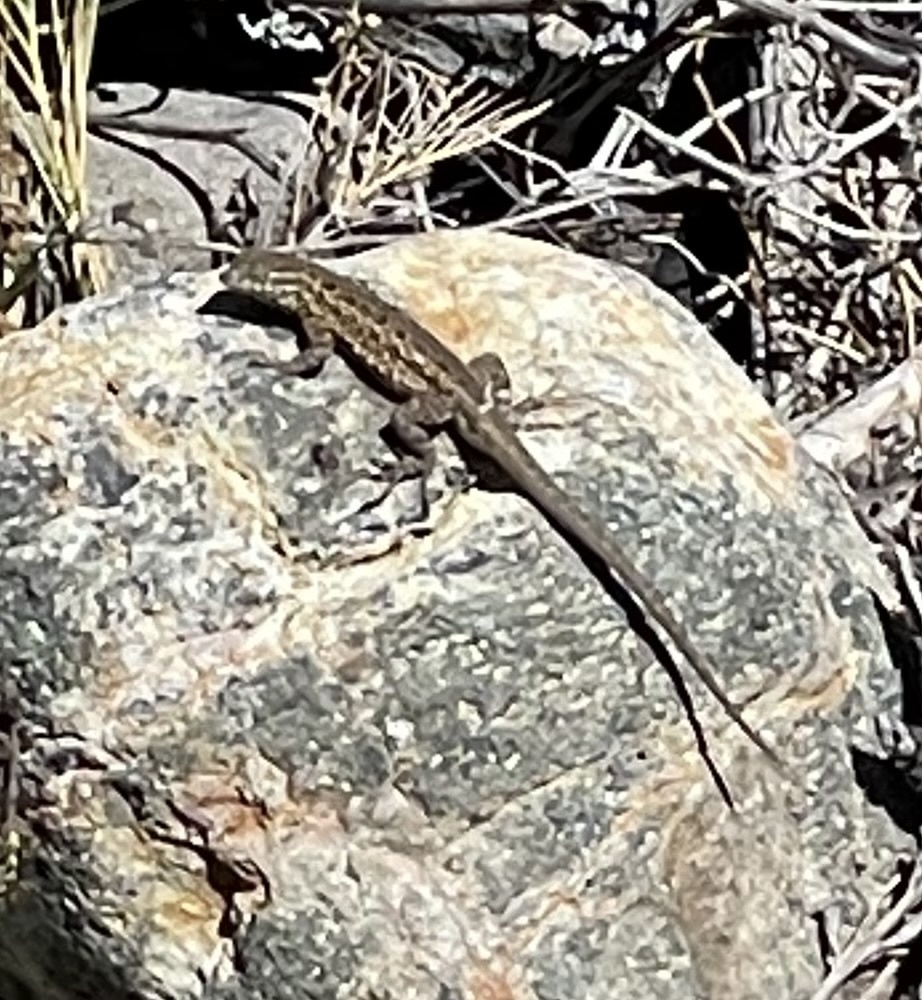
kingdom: Animalia
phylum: Chordata
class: Squamata
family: Phrynosomatidae
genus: Uta
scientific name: Uta stansburiana
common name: Side-blotched lizard
